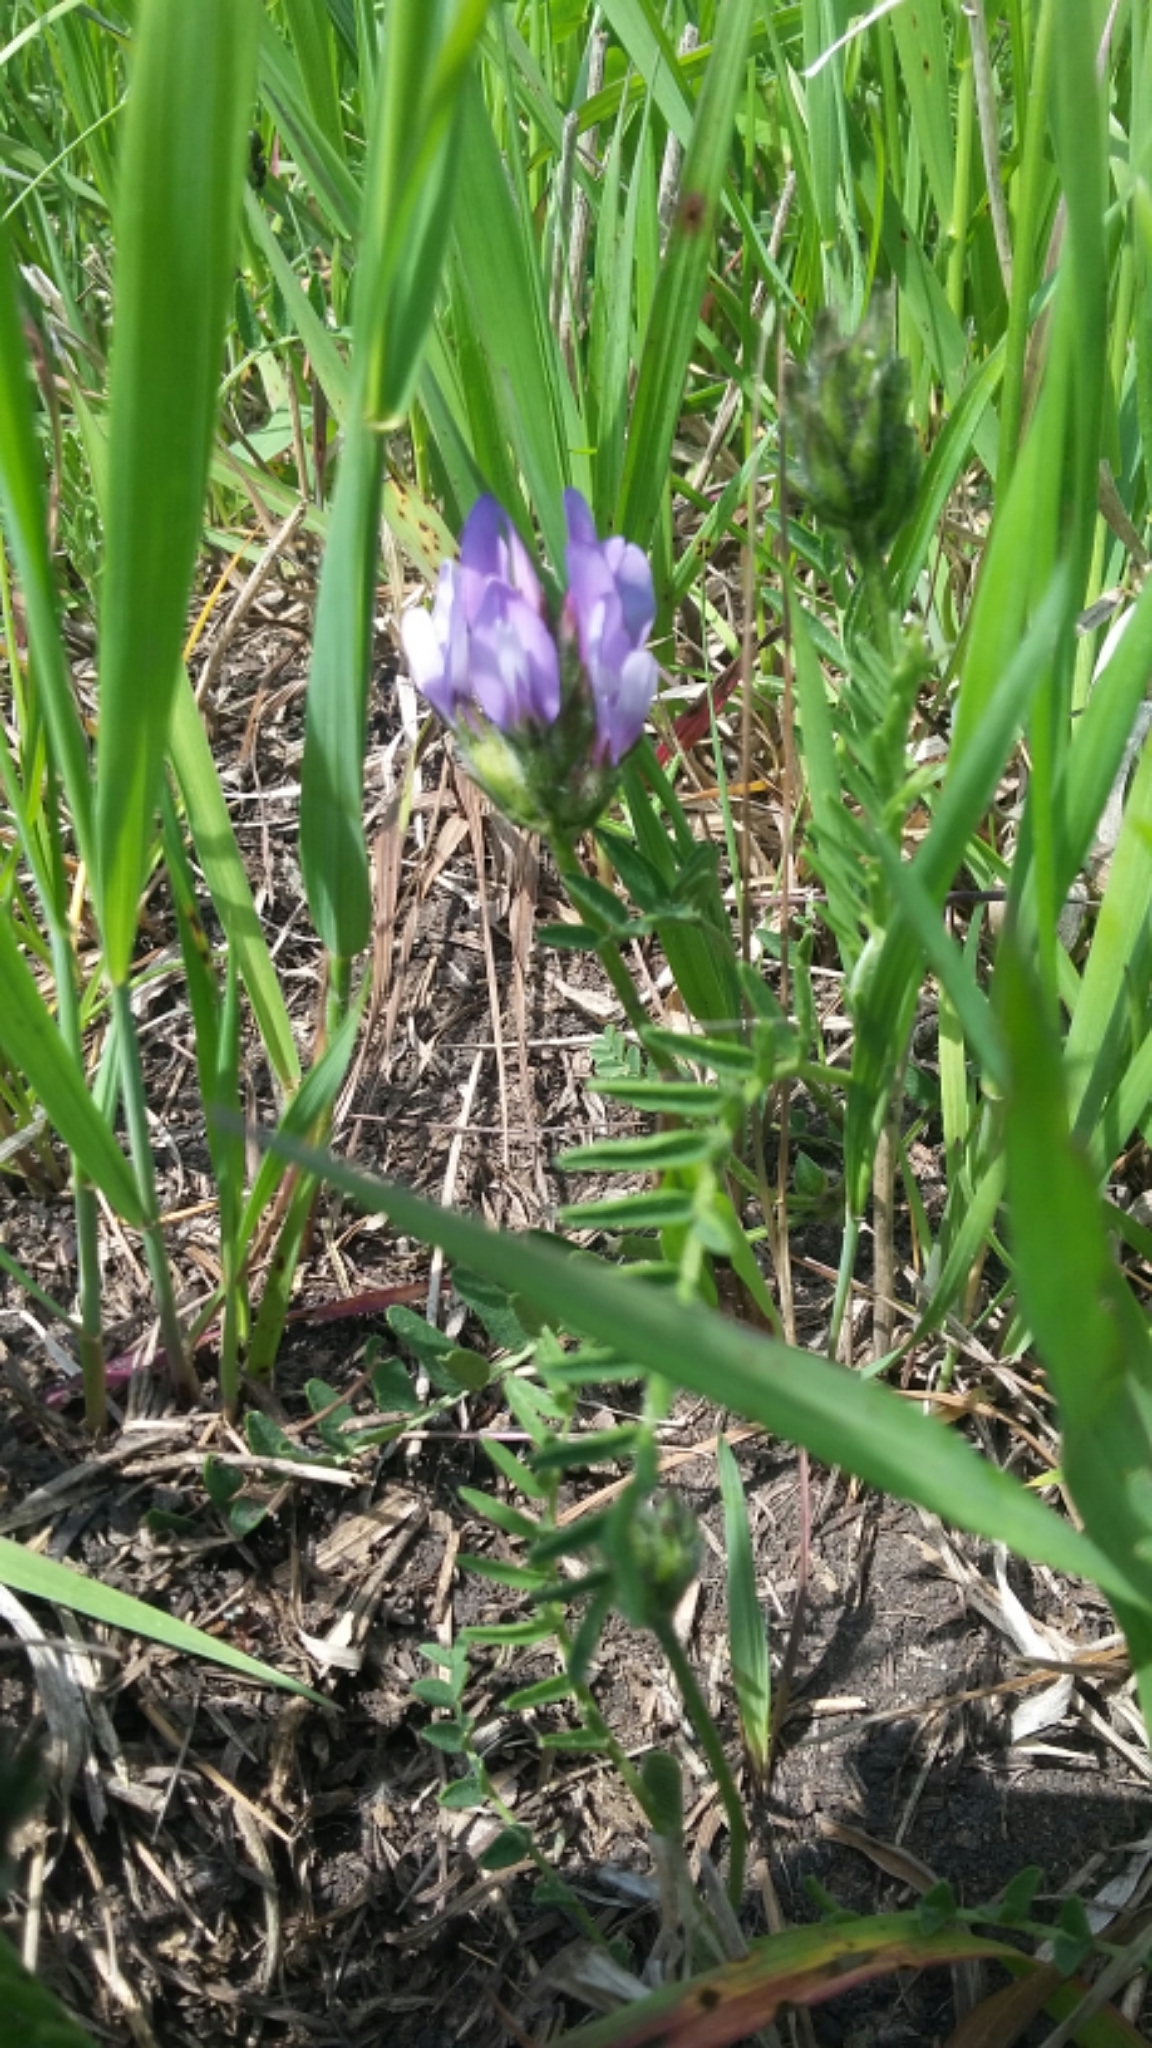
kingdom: Plantae
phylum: Tracheophyta
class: Magnoliopsida
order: Fabales
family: Fabaceae
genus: Astragalus
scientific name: Astragalus agrestis
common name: Field milk-vetch
